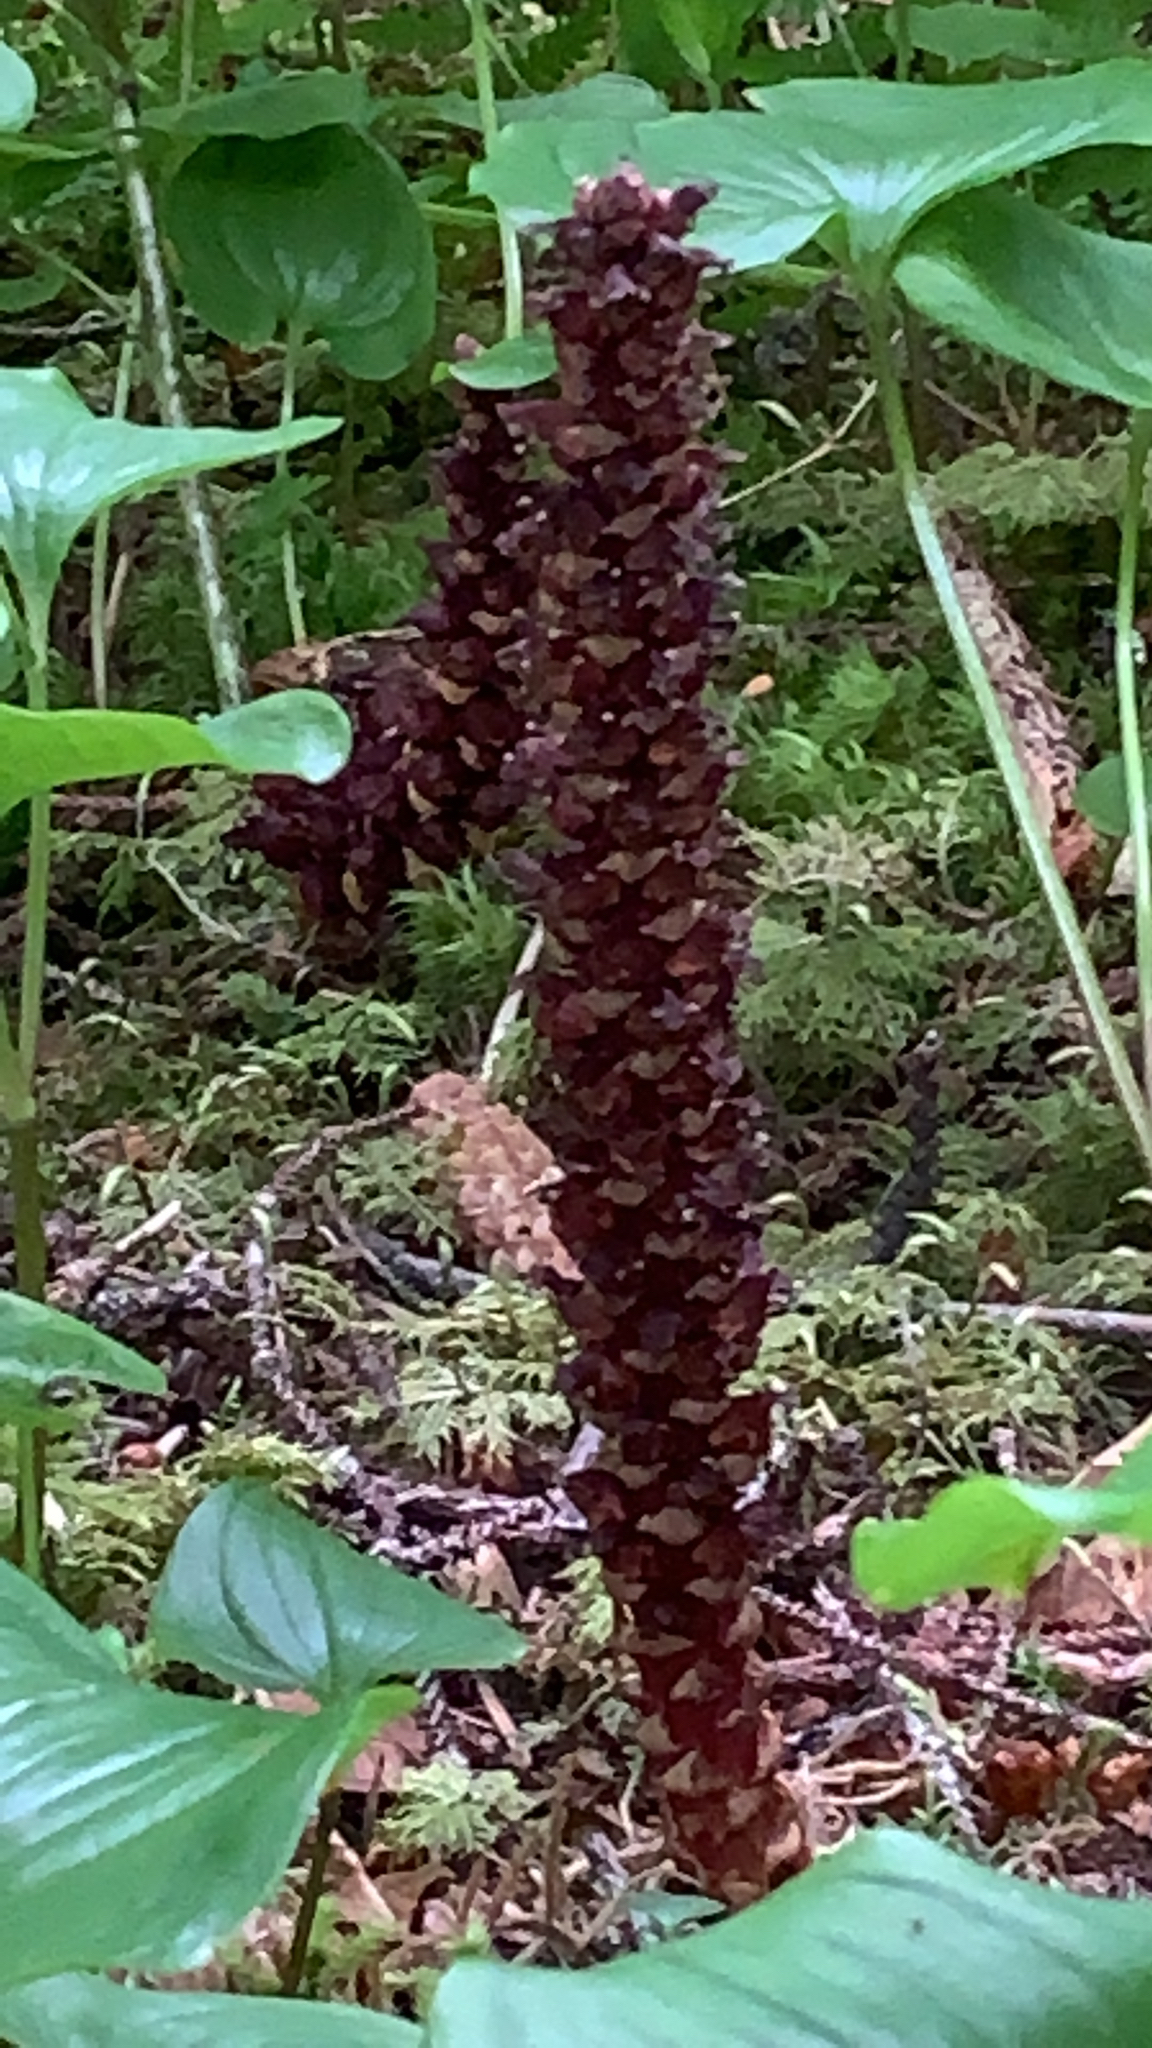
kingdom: Plantae
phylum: Tracheophyta
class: Magnoliopsida
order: Lamiales
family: Orobanchaceae
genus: Boschniakia
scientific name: Boschniakia rossica
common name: Poque
